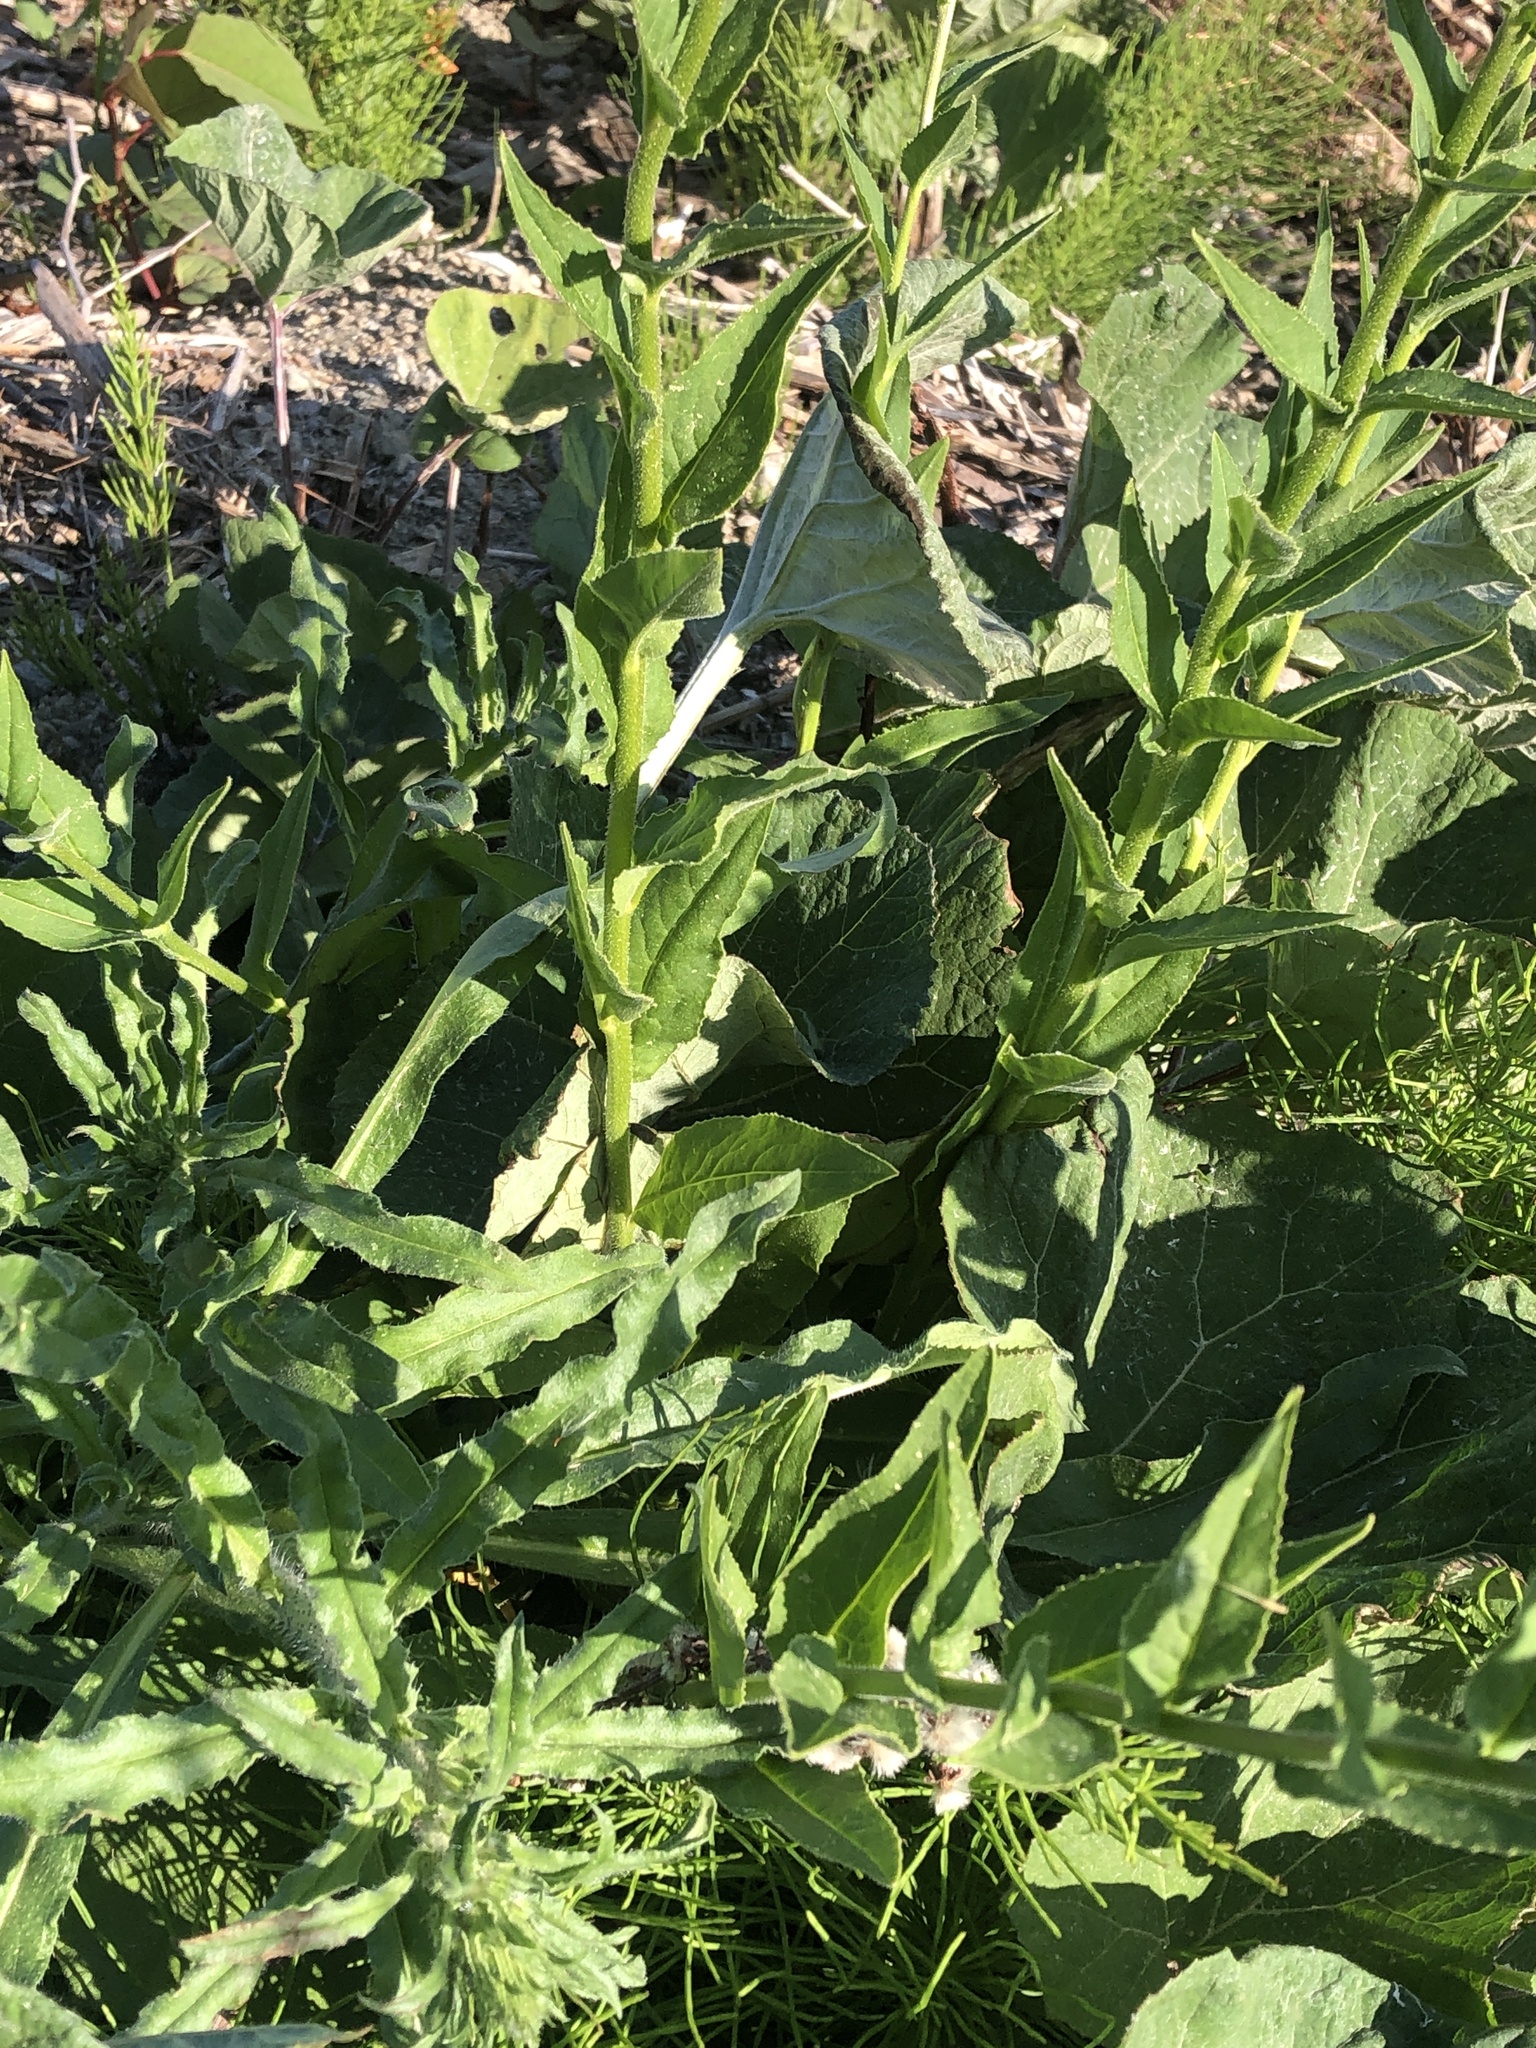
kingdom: Plantae
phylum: Tracheophyta
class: Magnoliopsida
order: Brassicales
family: Brassicaceae
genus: Hesperis
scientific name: Hesperis matronalis
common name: Dame's-violet
